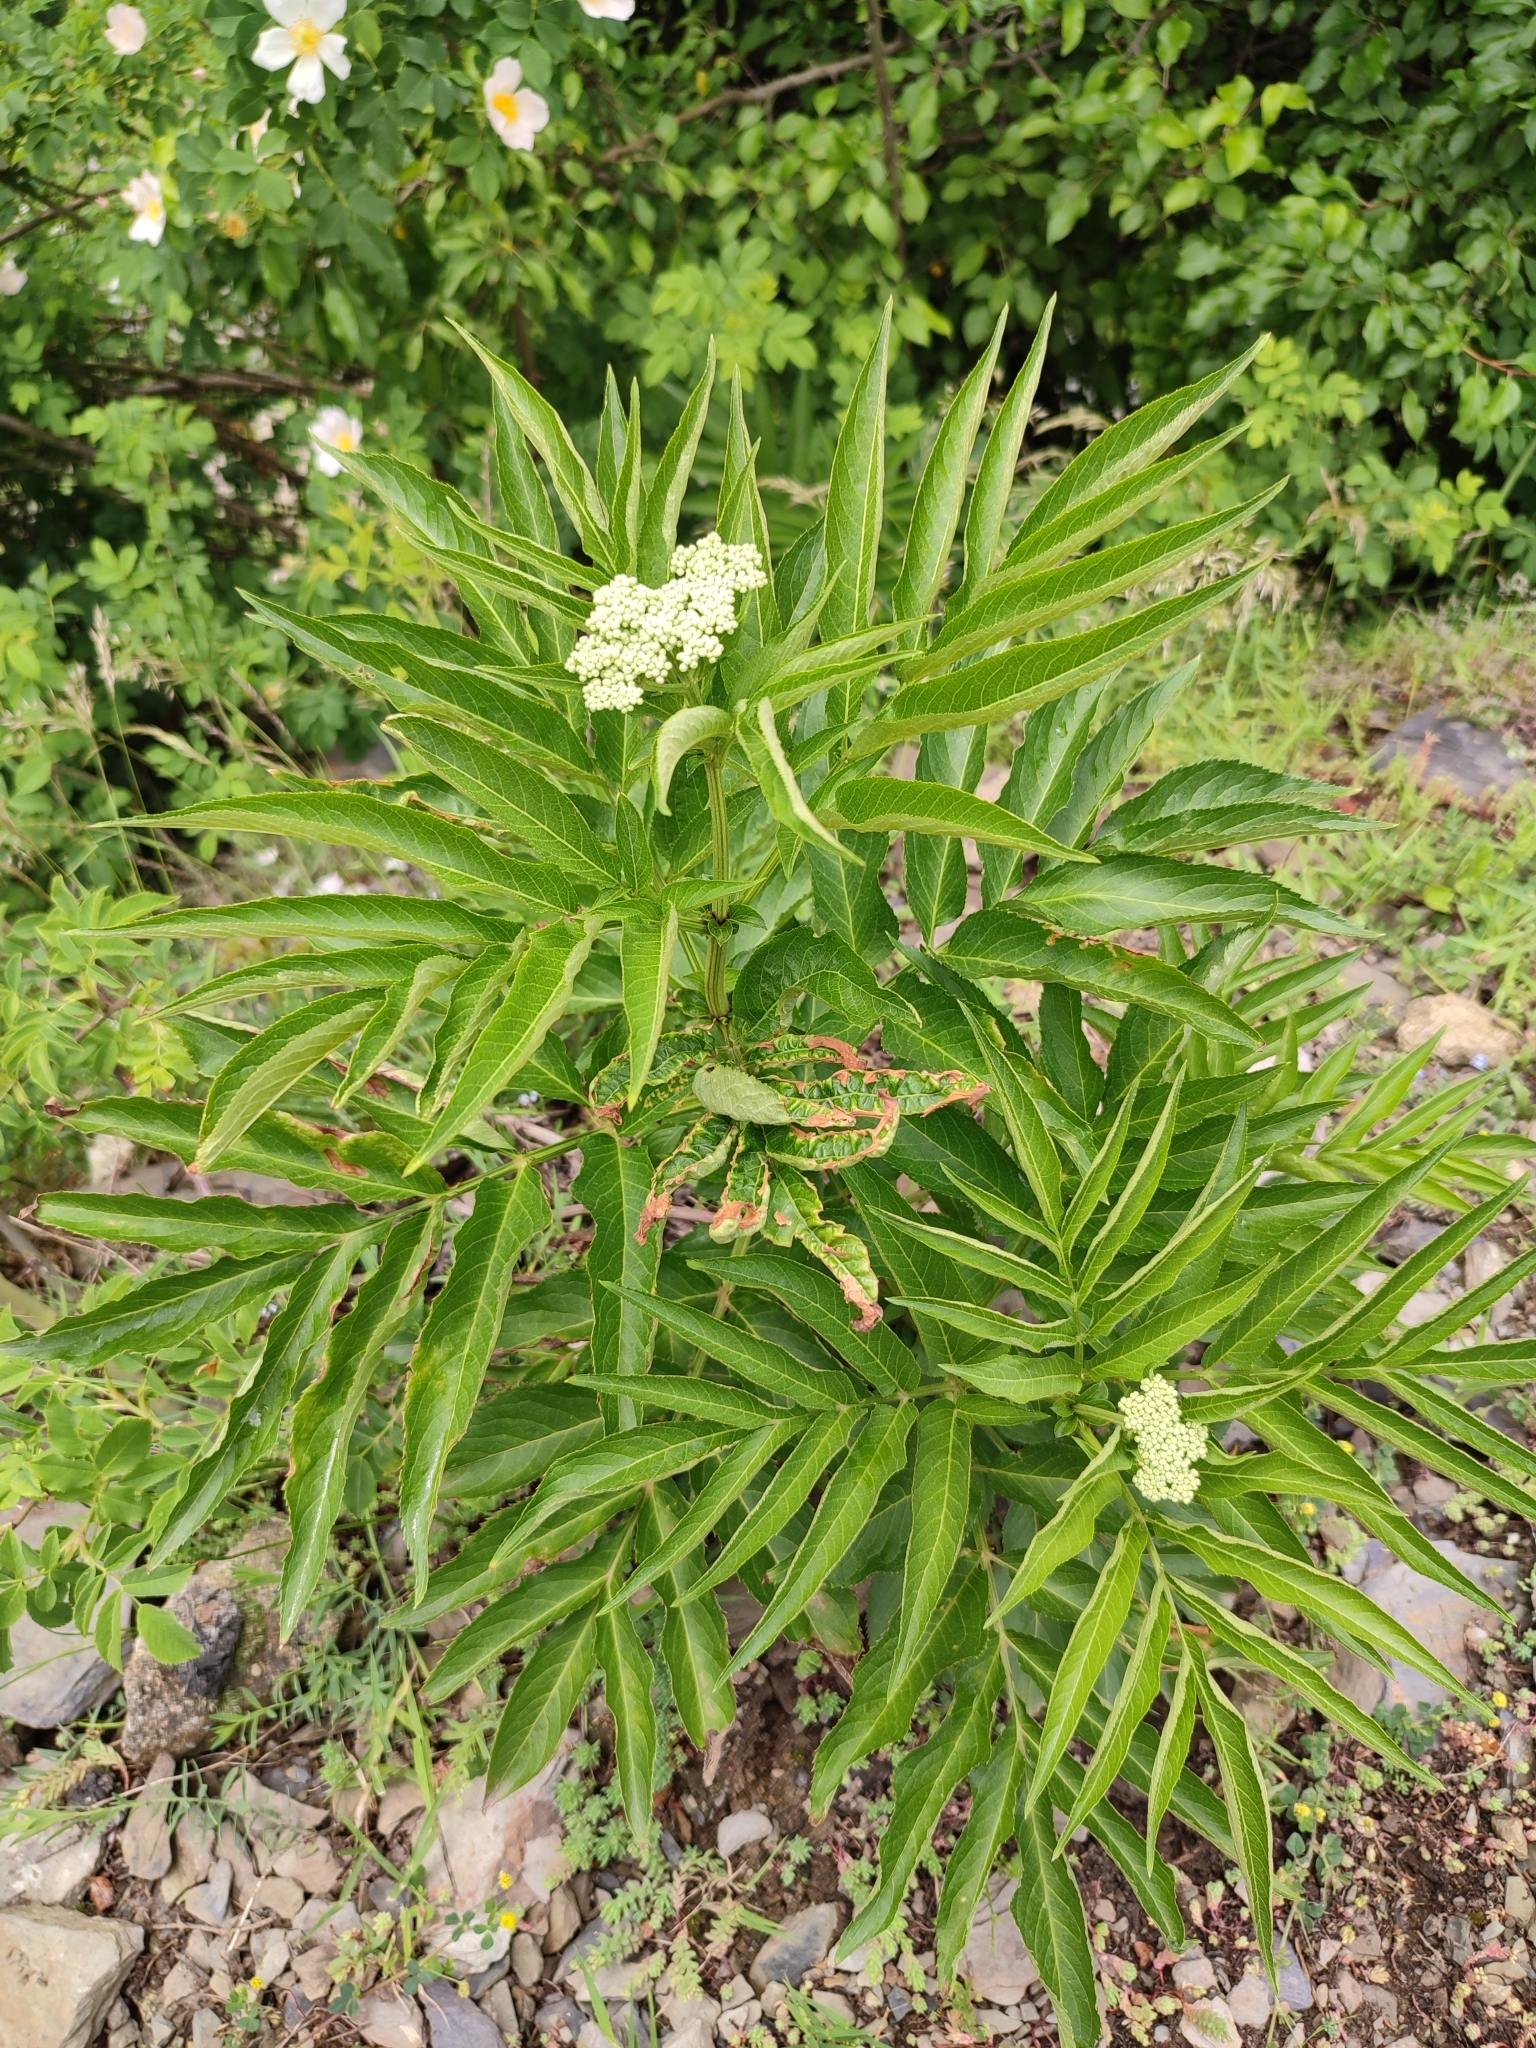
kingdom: Plantae
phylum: Tracheophyta
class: Magnoliopsida
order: Dipsacales
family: Viburnaceae
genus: Sambucus
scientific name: Sambucus ebulus
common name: Dwarf elder
